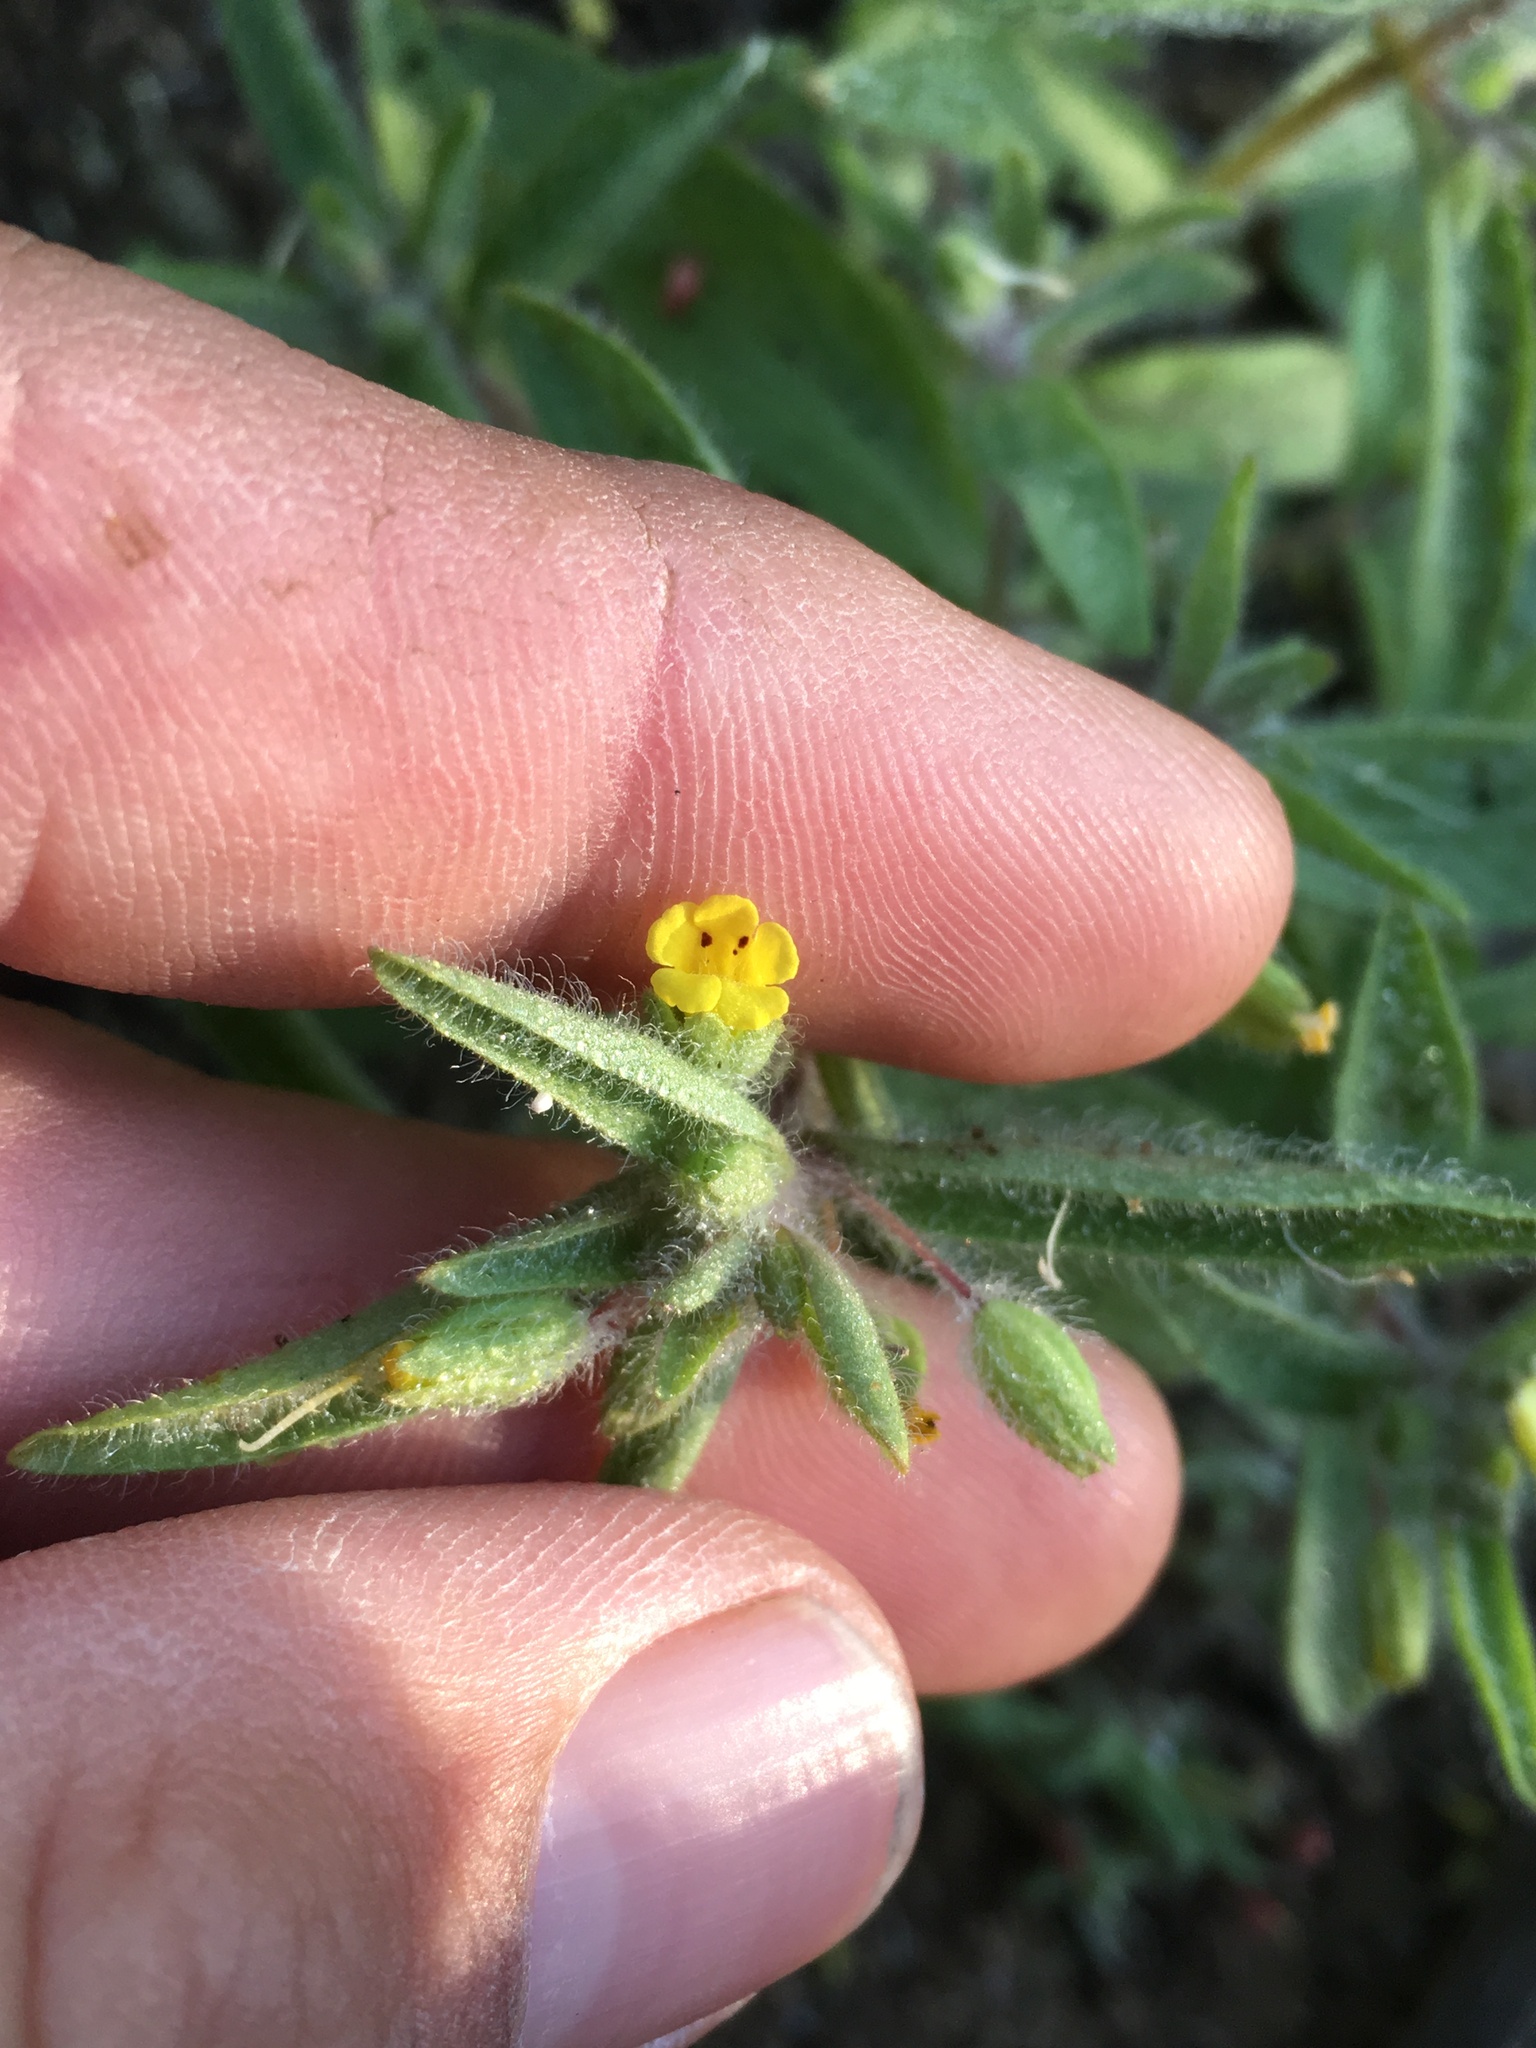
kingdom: Plantae
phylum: Tracheophyta
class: Magnoliopsida
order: Lamiales
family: Phrymaceae
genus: Mimetanthe
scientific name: Mimetanthe pilosa
